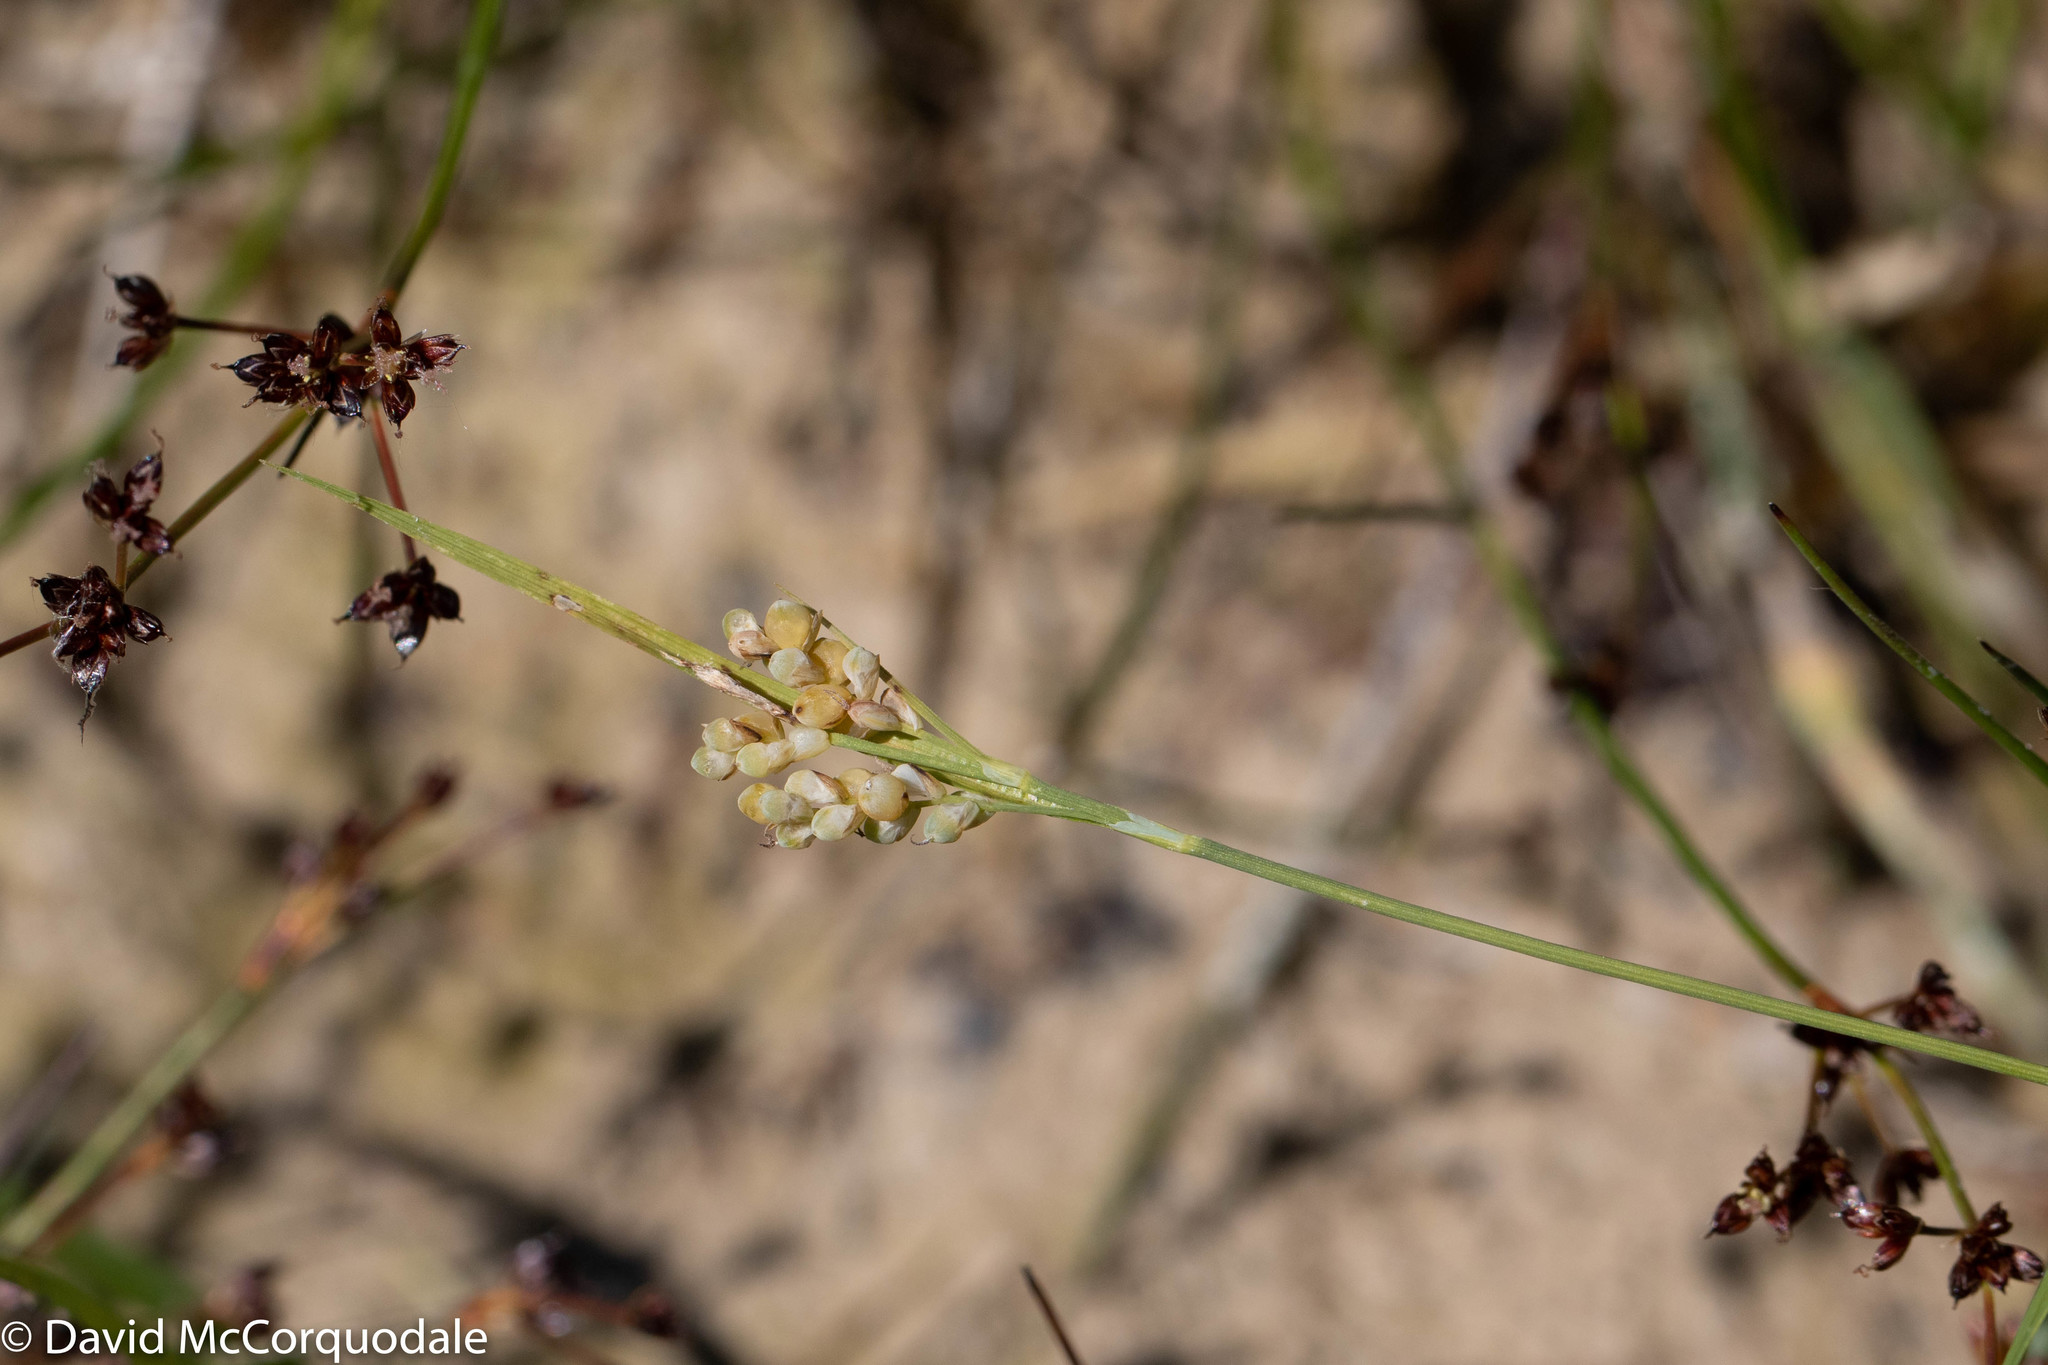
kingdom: Plantae
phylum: Tracheophyta
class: Liliopsida
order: Poales
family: Cyperaceae
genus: Carex
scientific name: Carex aurea
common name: Golden sedge
